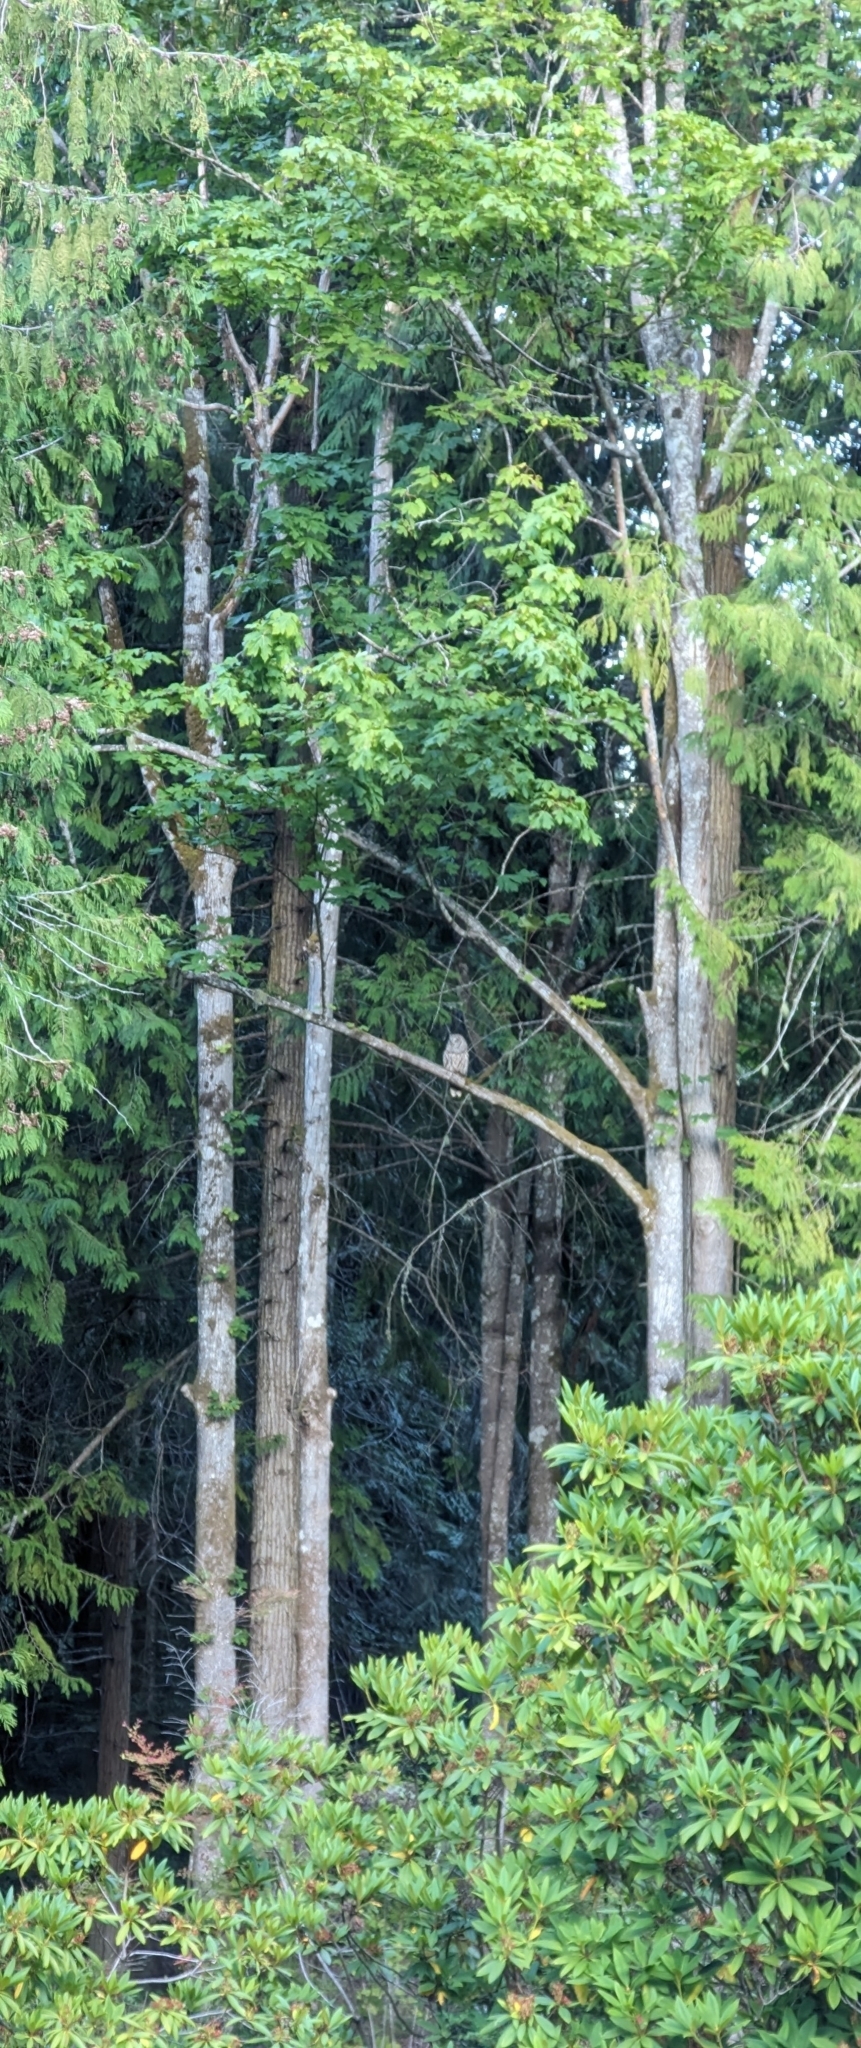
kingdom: Animalia
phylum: Chordata
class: Aves
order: Strigiformes
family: Strigidae
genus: Strix
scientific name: Strix varia
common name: Barred owl
